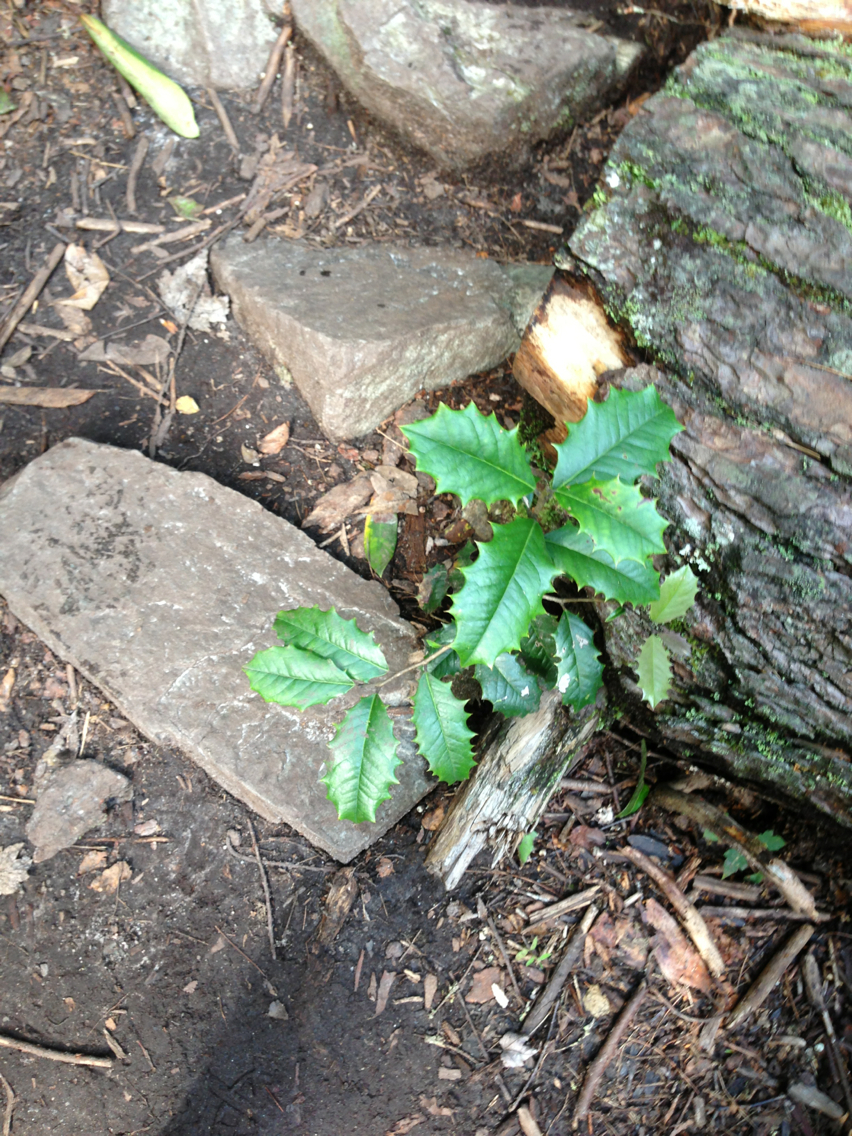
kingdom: Plantae
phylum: Tracheophyta
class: Magnoliopsida
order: Aquifoliales
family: Aquifoliaceae
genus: Ilex
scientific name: Ilex opaca
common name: American holly
